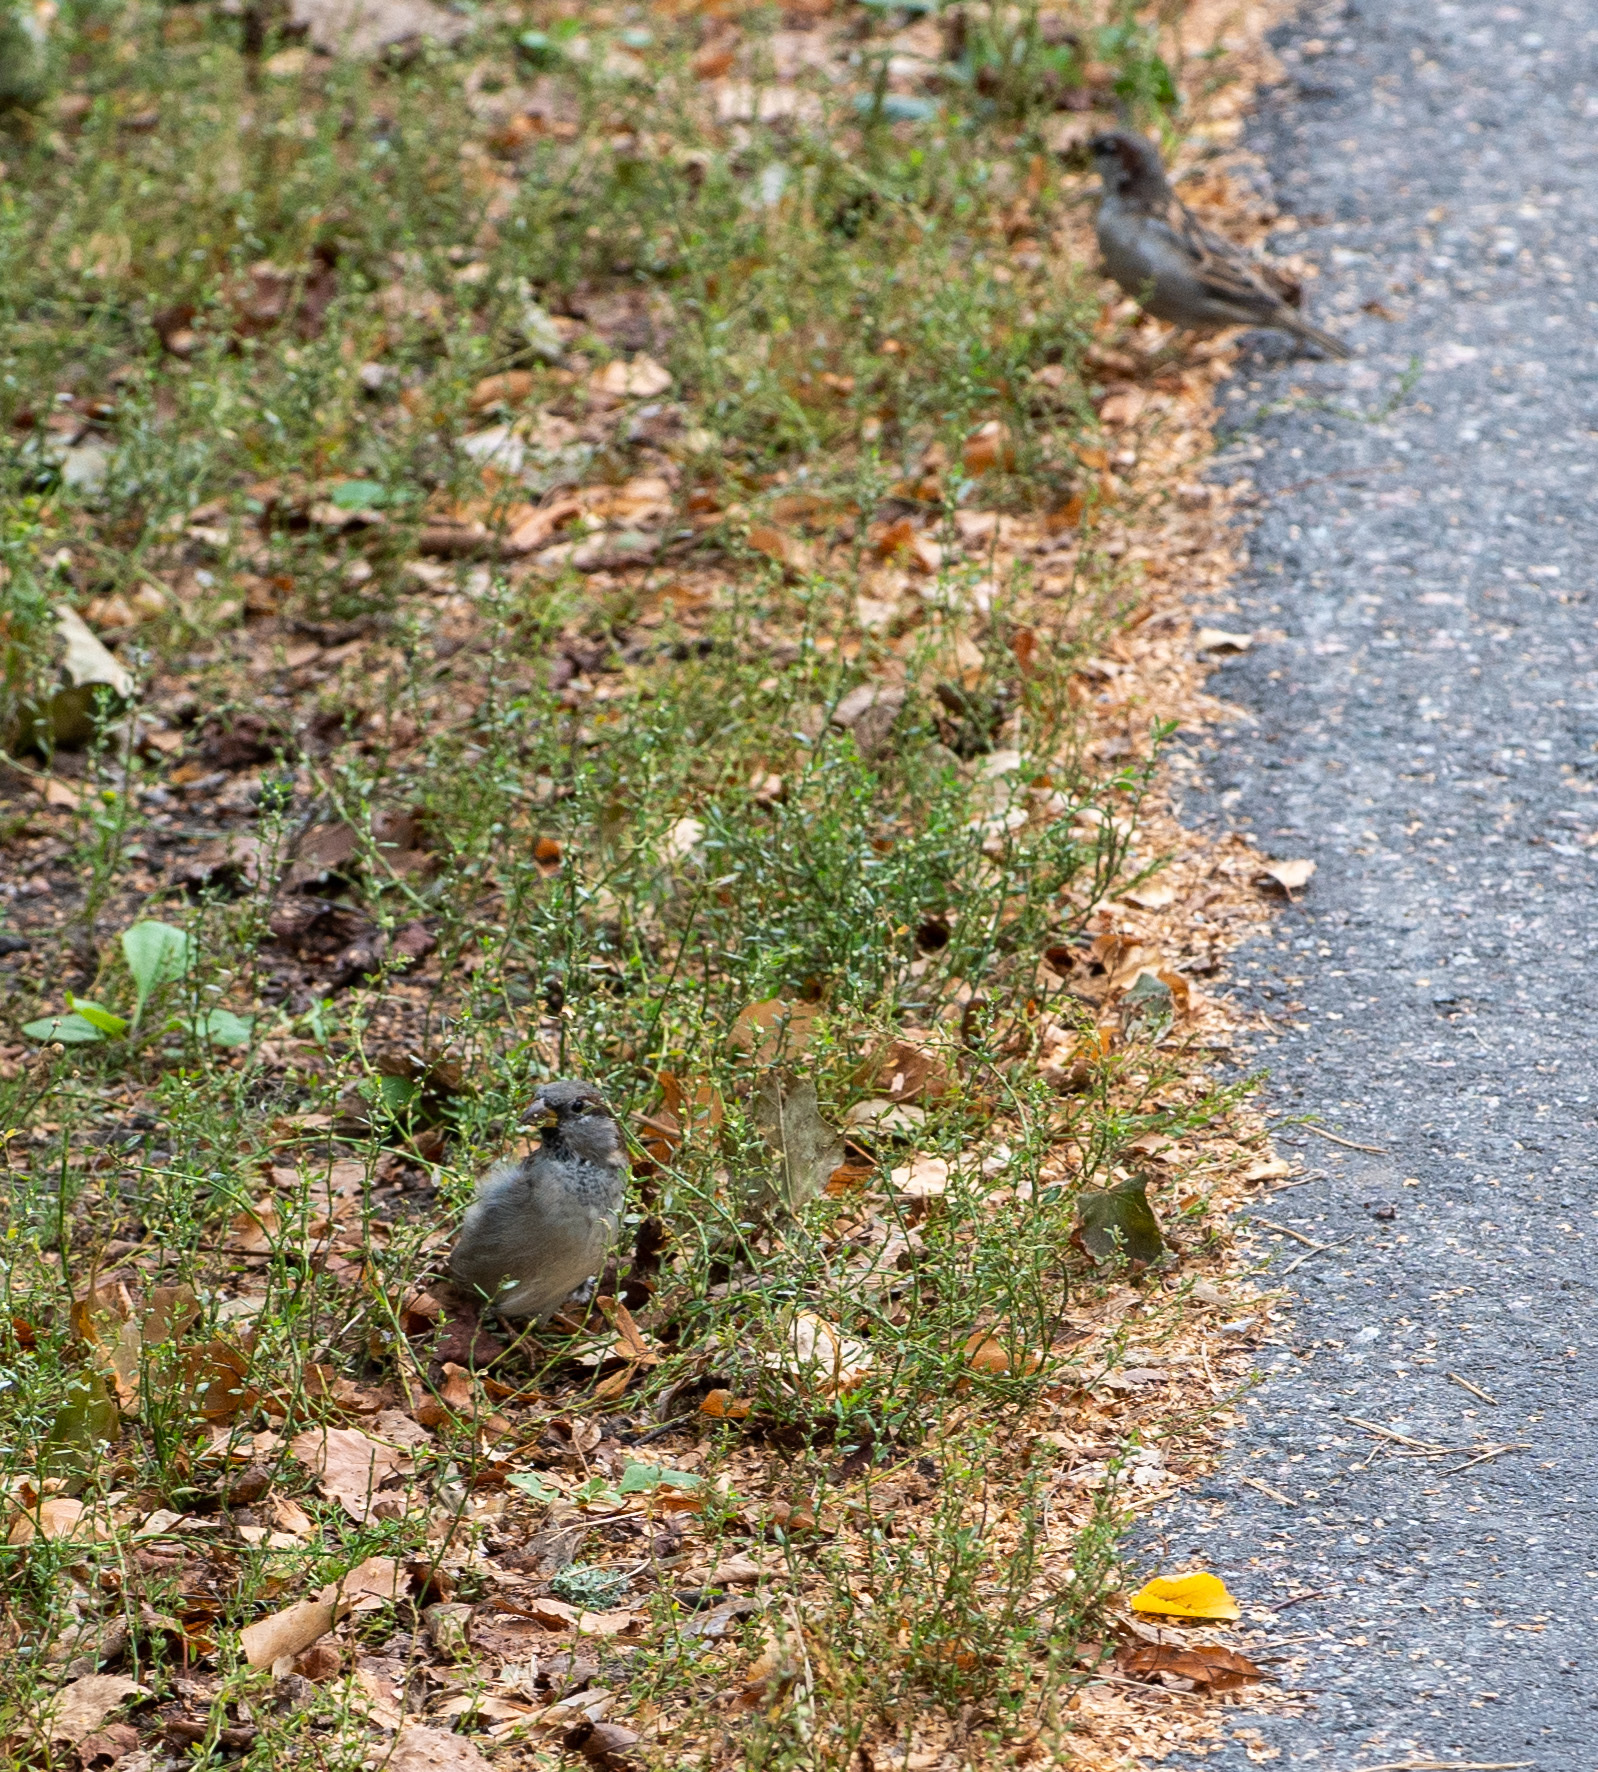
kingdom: Animalia
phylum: Chordata
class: Aves
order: Passeriformes
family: Passeridae
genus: Passer
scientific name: Passer domesticus
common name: House sparrow
